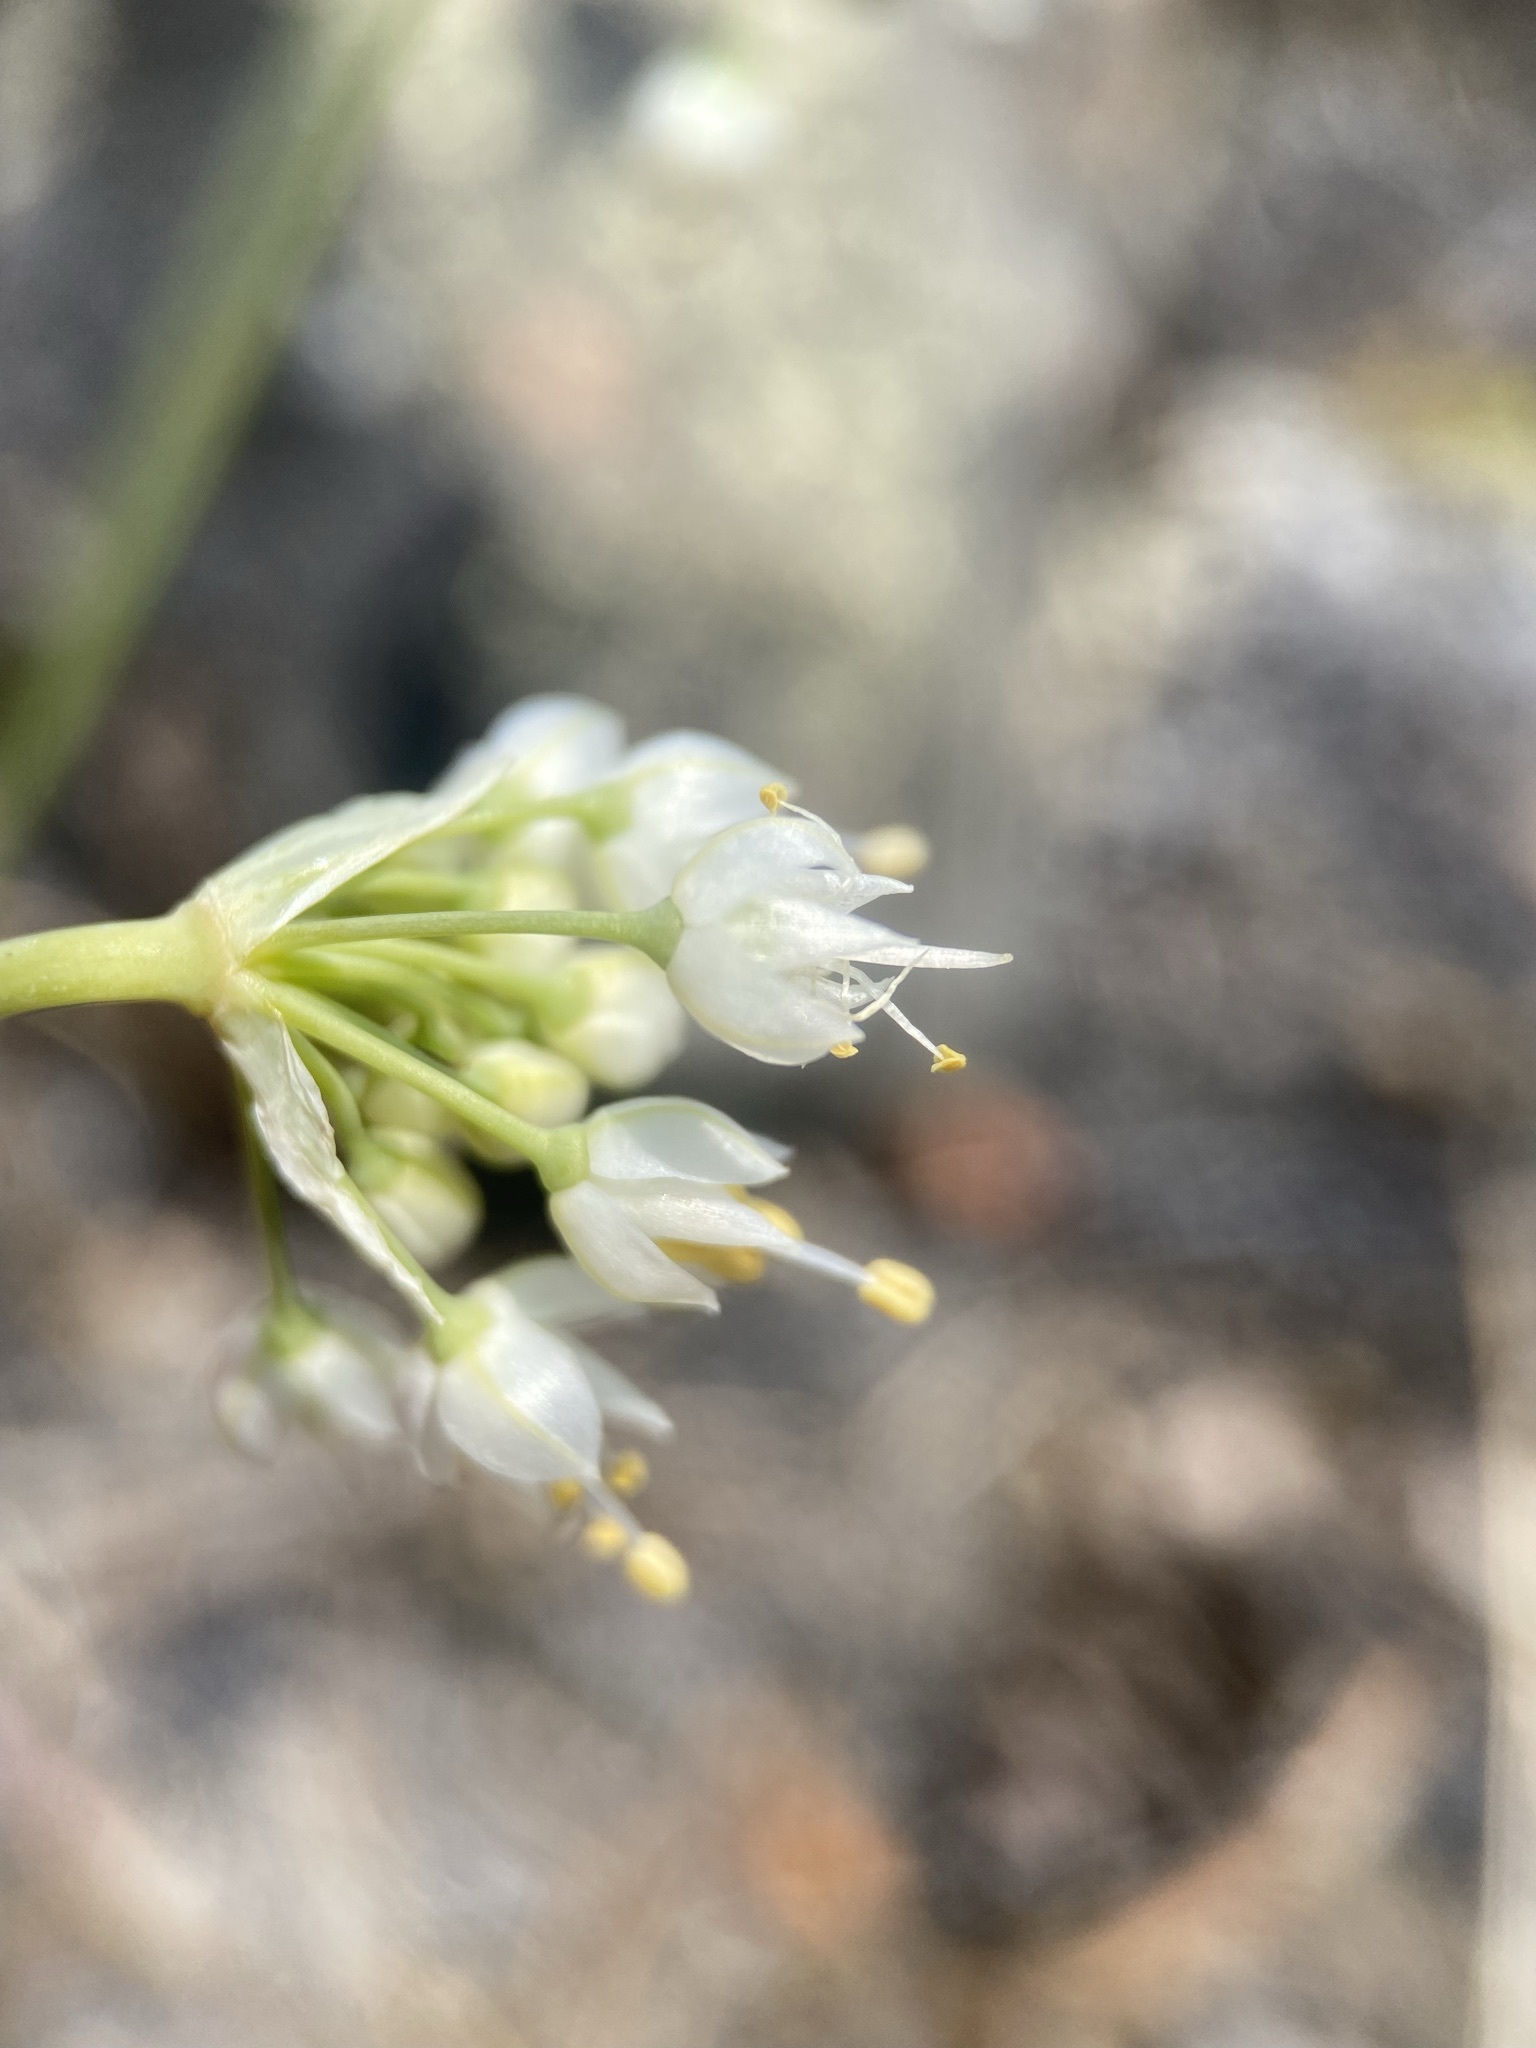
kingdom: Plantae
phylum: Tracheophyta
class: Liliopsida
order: Asparagales
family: Amaryllidaceae
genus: Allium
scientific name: Allium cernuum
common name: Nodding onion
